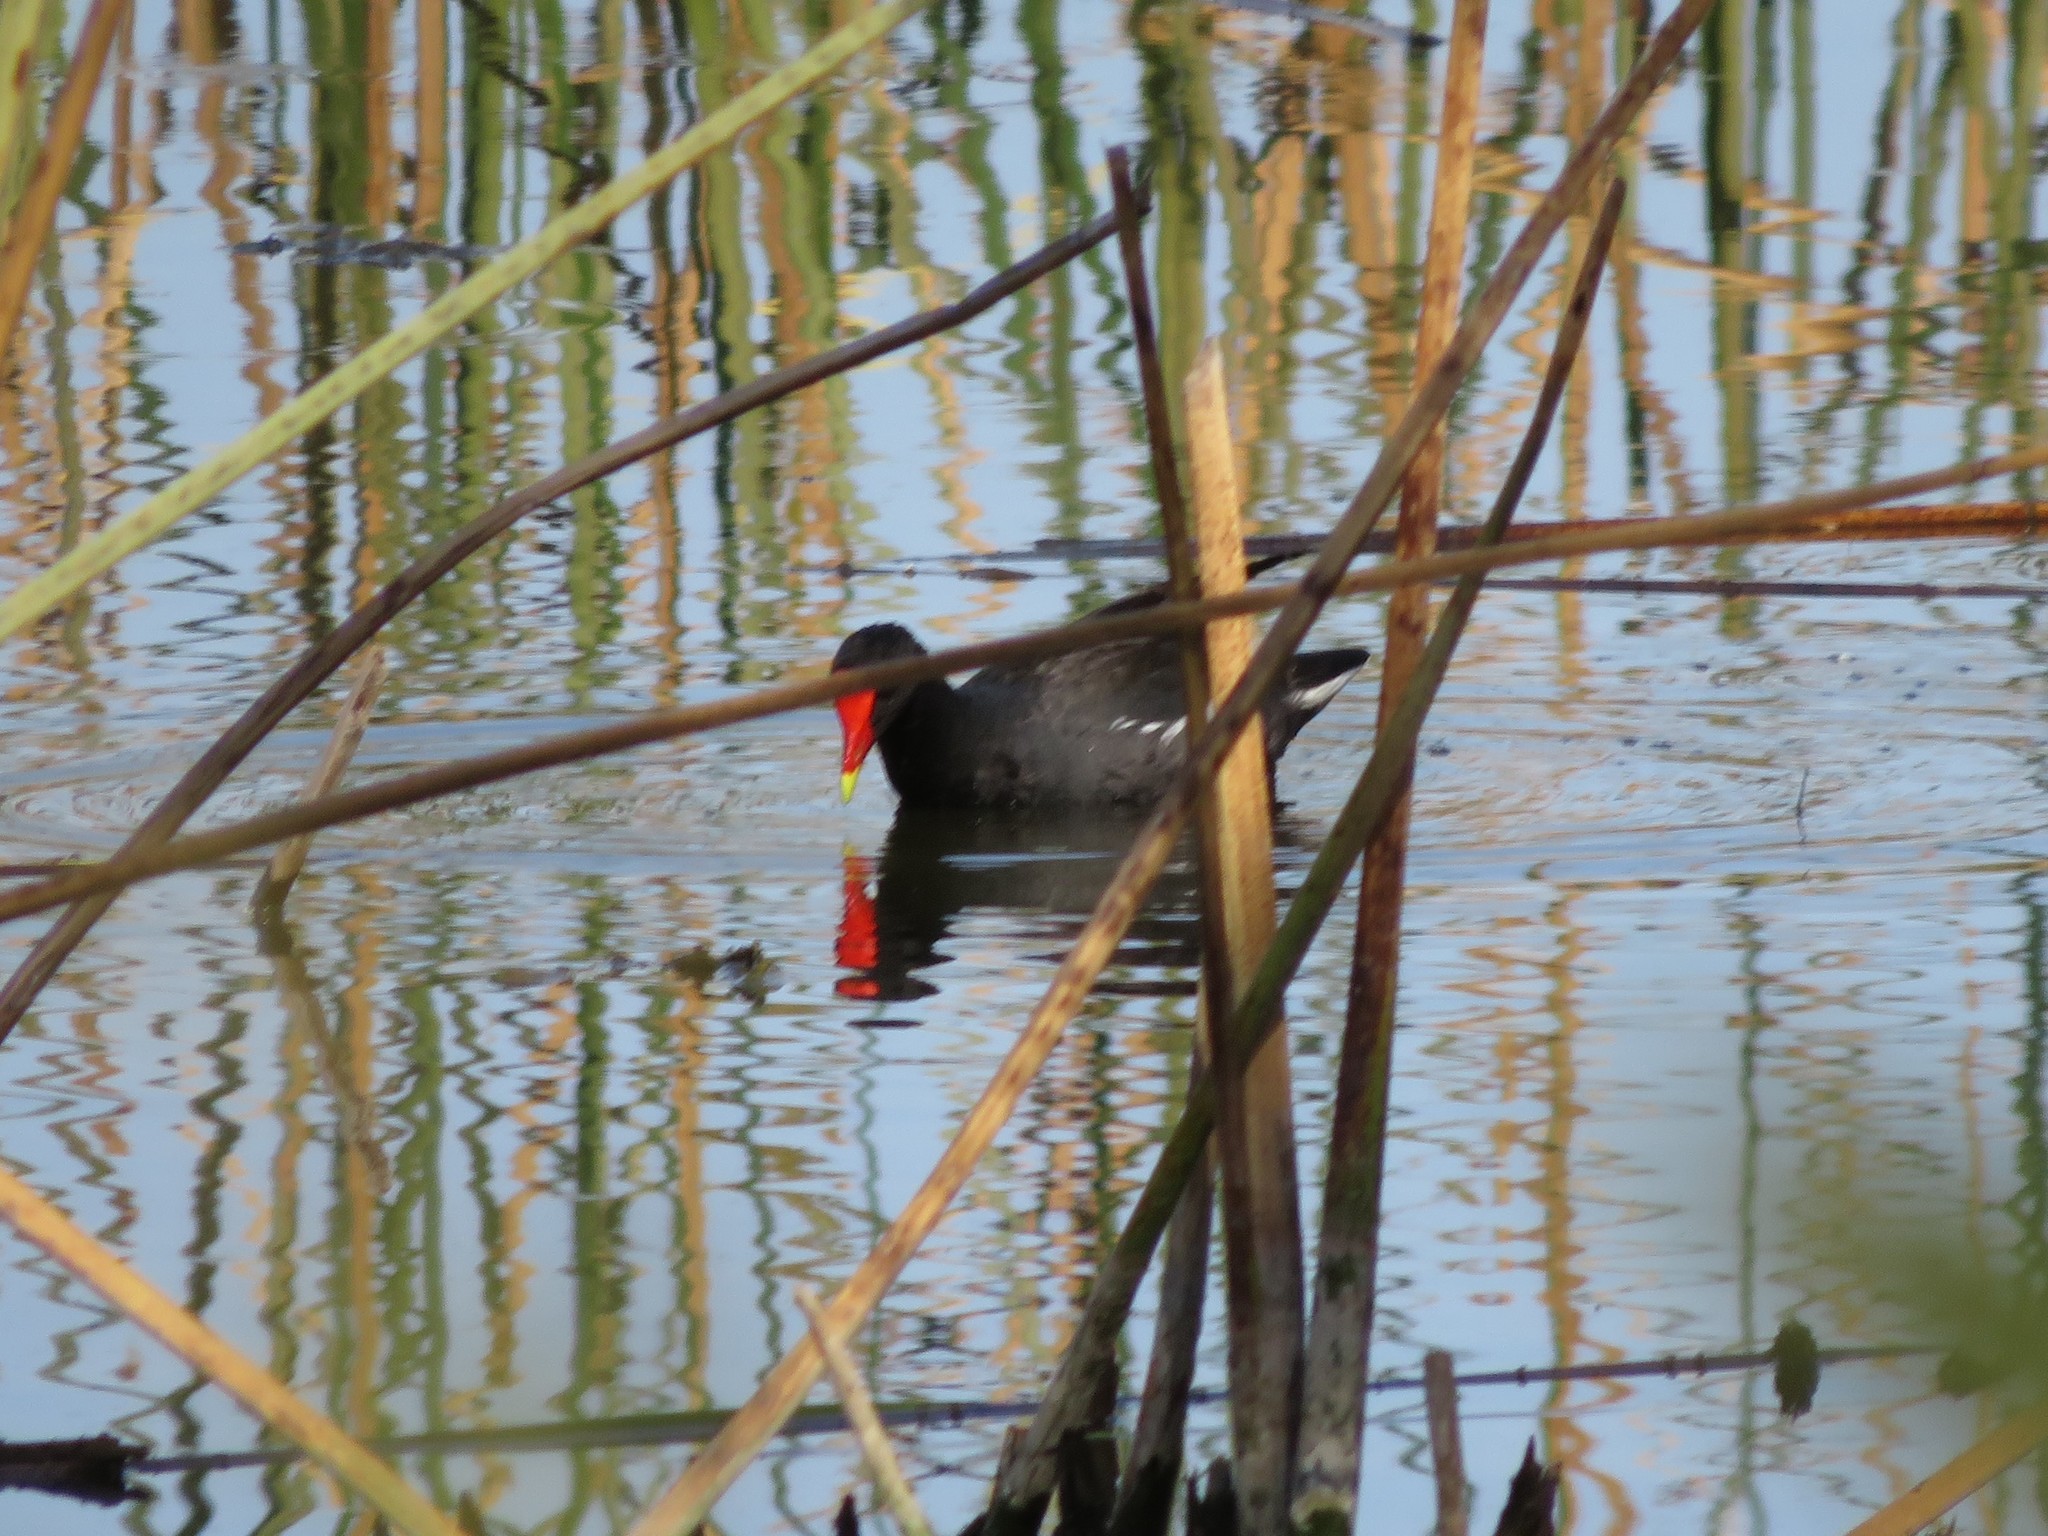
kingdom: Animalia
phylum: Chordata
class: Aves
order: Gruiformes
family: Rallidae
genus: Gallinula
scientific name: Gallinula chloropus
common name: Common moorhen
